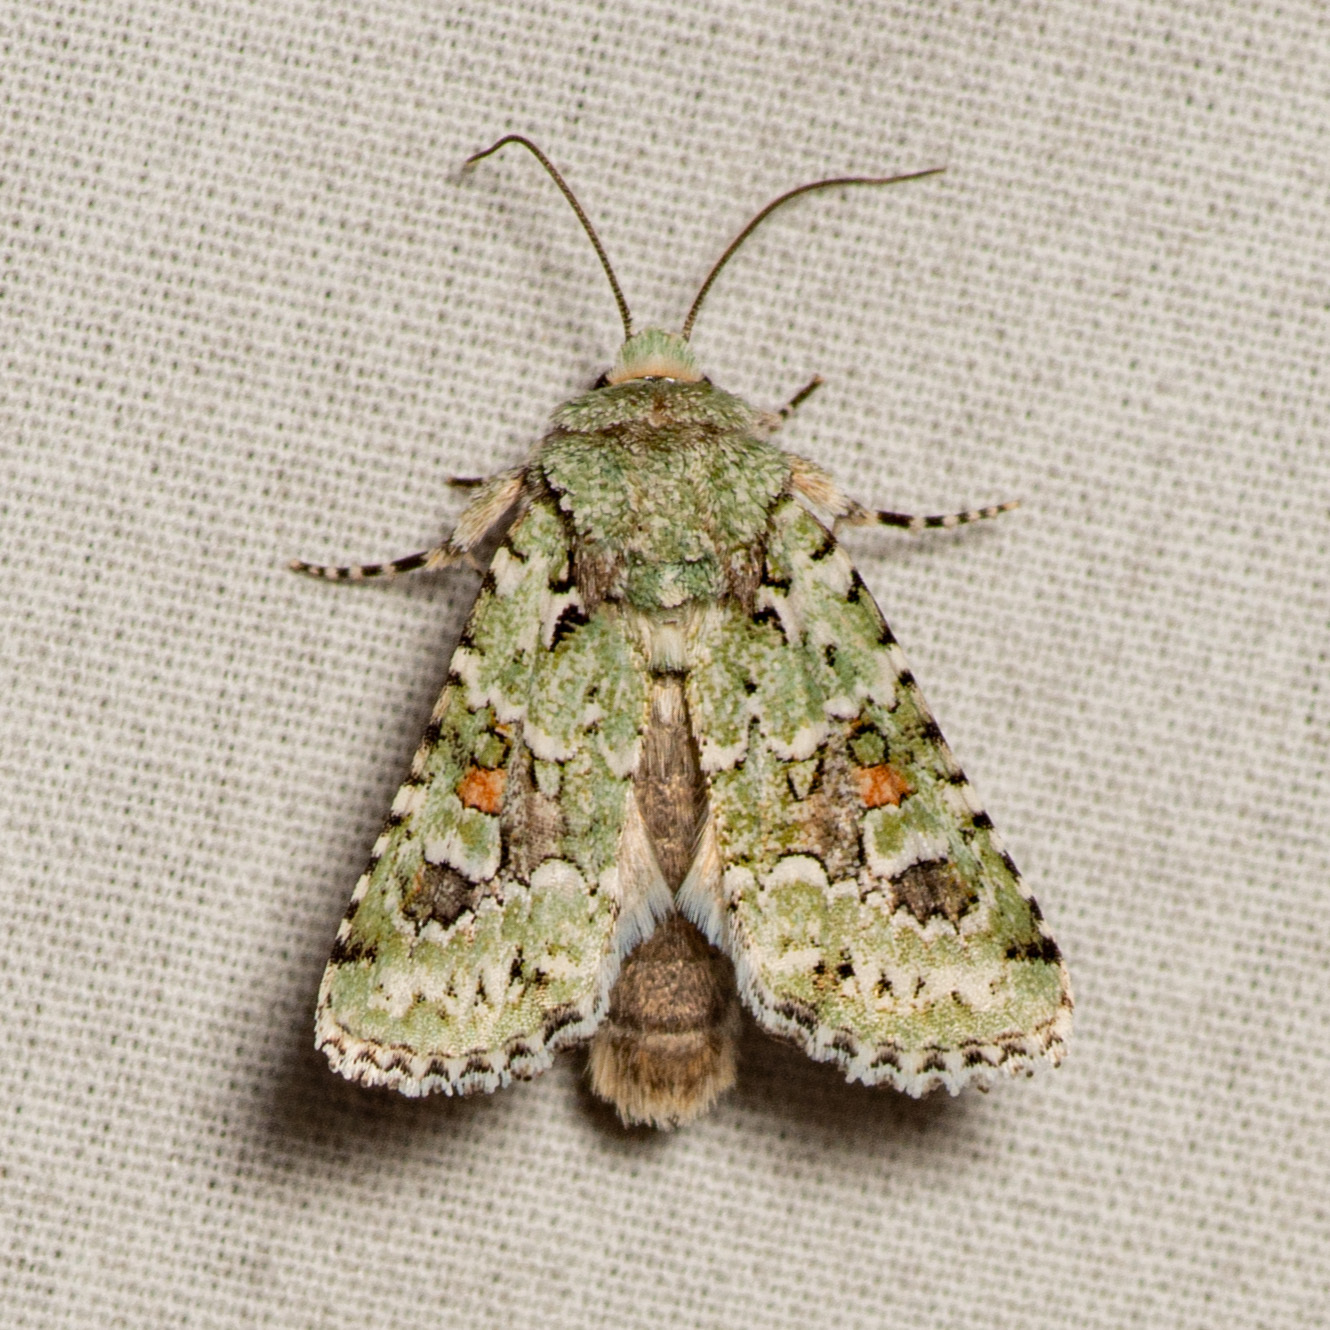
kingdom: Animalia
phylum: Arthropoda
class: Insecta
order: Lepidoptera
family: Noctuidae
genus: Lacinipolia
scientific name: Lacinipolia laudabilis
